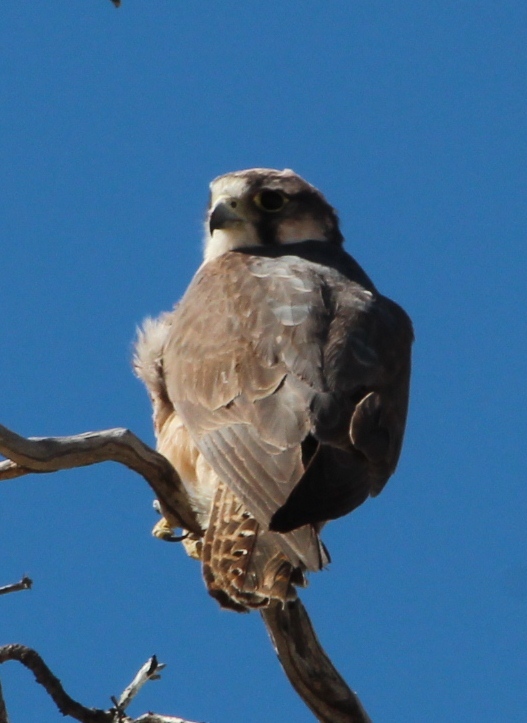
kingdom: Animalia
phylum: Chordata
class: Aves
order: Falconiformes
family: Falconidae
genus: Falco
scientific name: Falco biarmicus
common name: Lanner falcon
